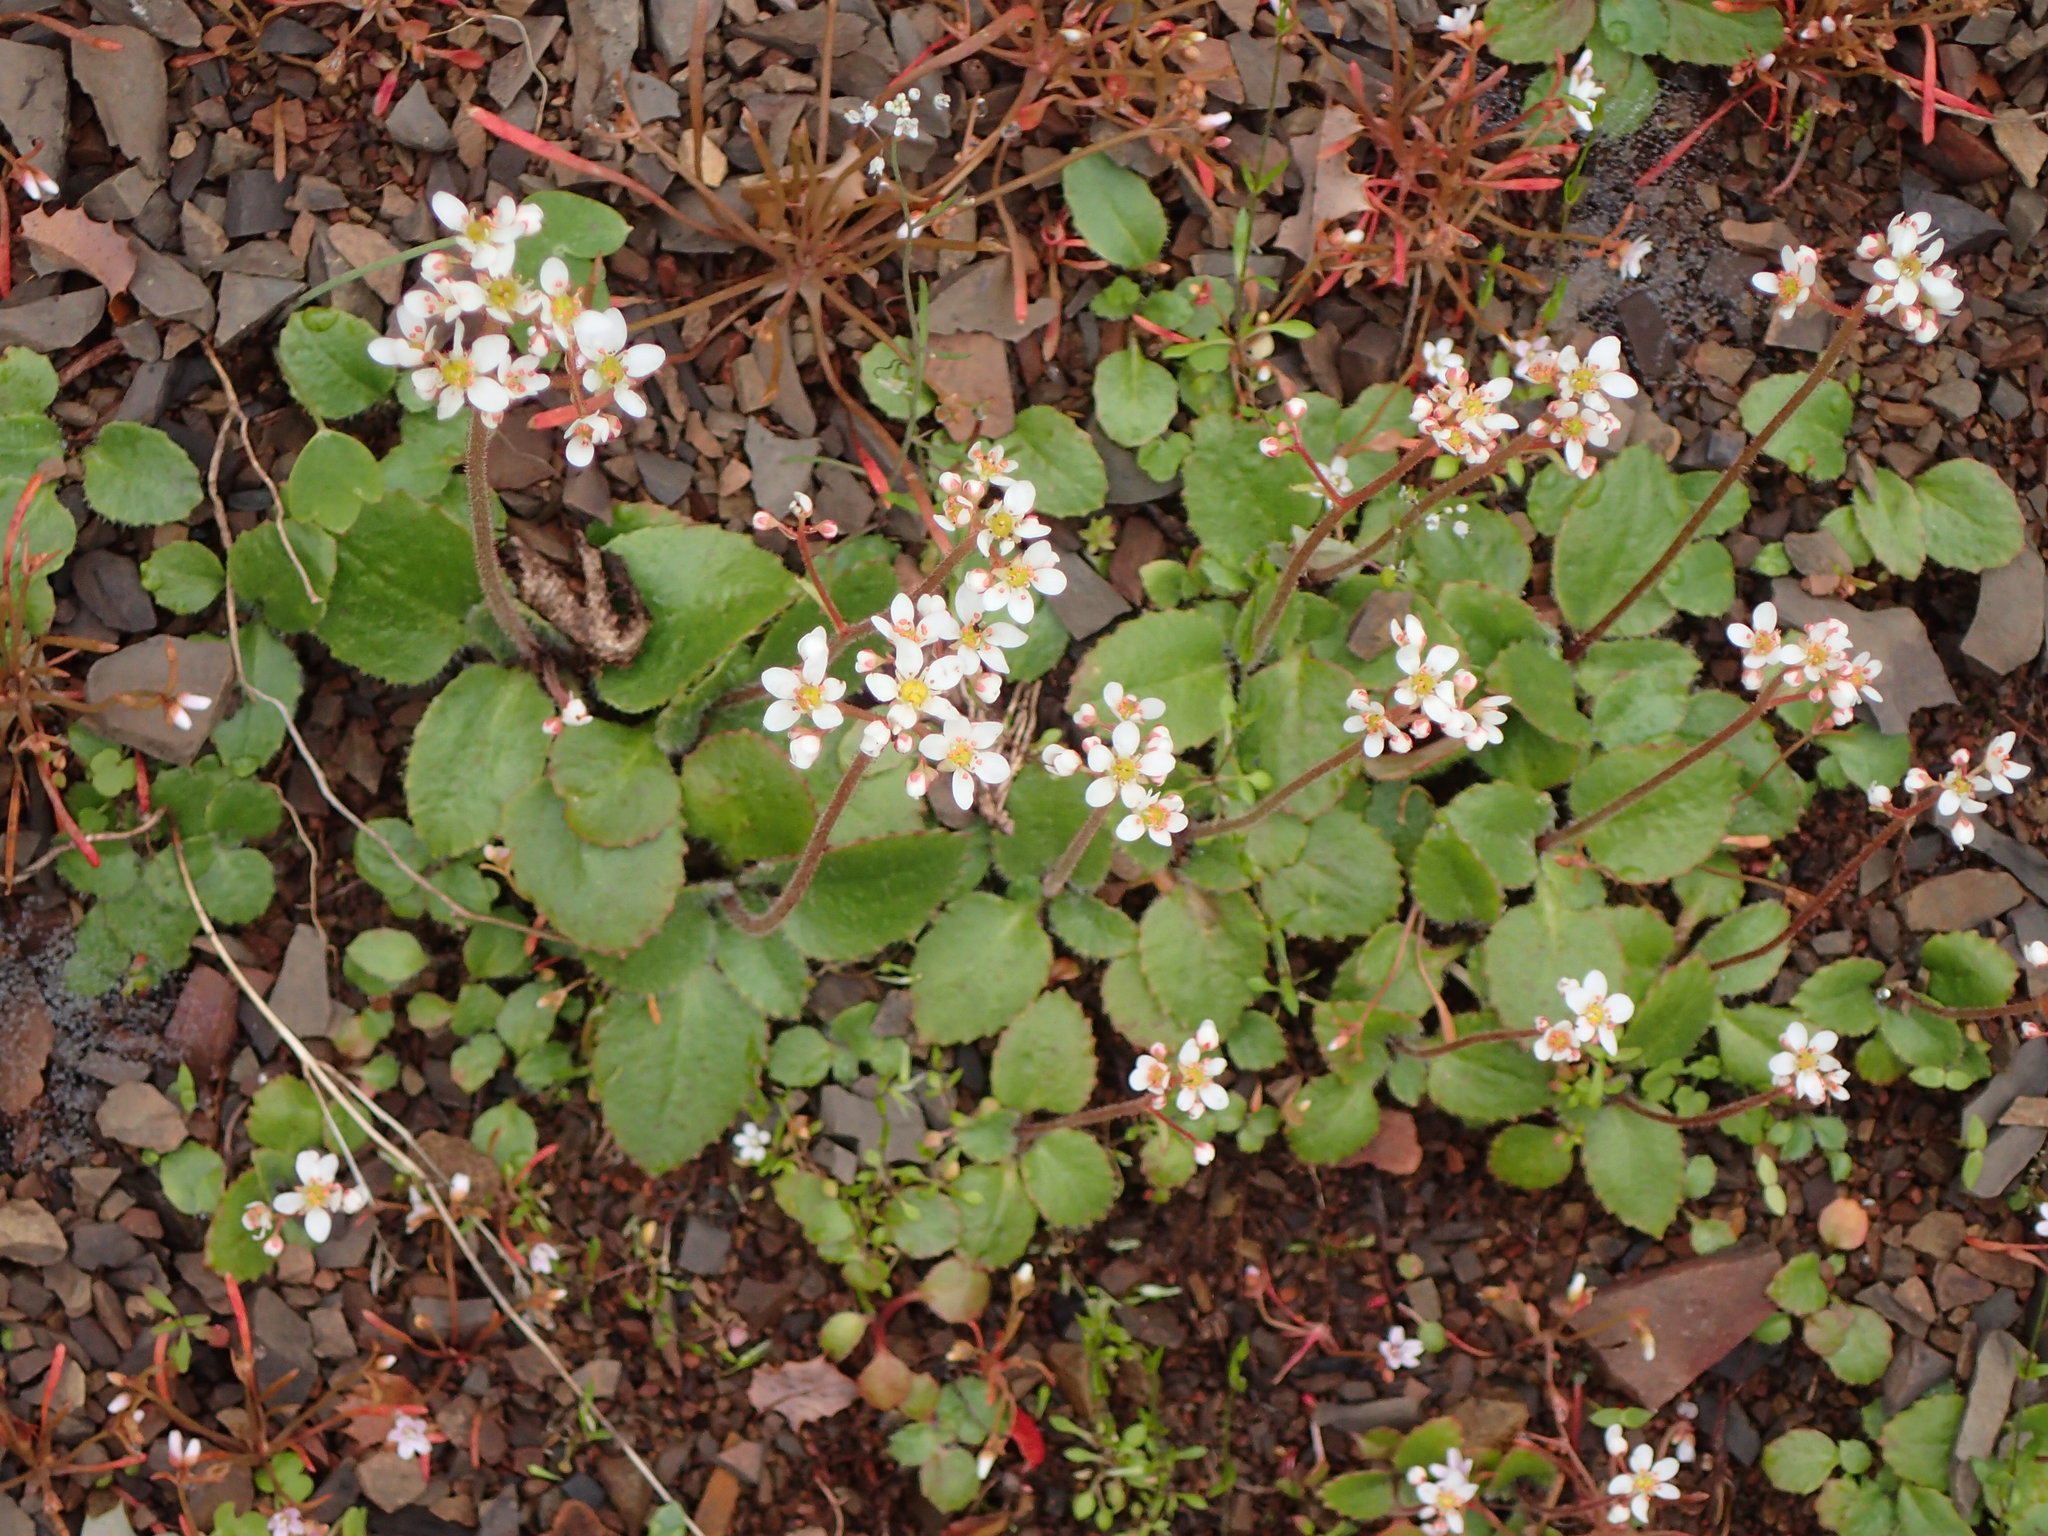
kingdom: Plantae
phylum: Tracheophyta
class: Magnoliopsida
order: Saxifragales
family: Saxifragaceae
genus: Micranthes
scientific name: Micranthes californica
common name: California saxifrage
